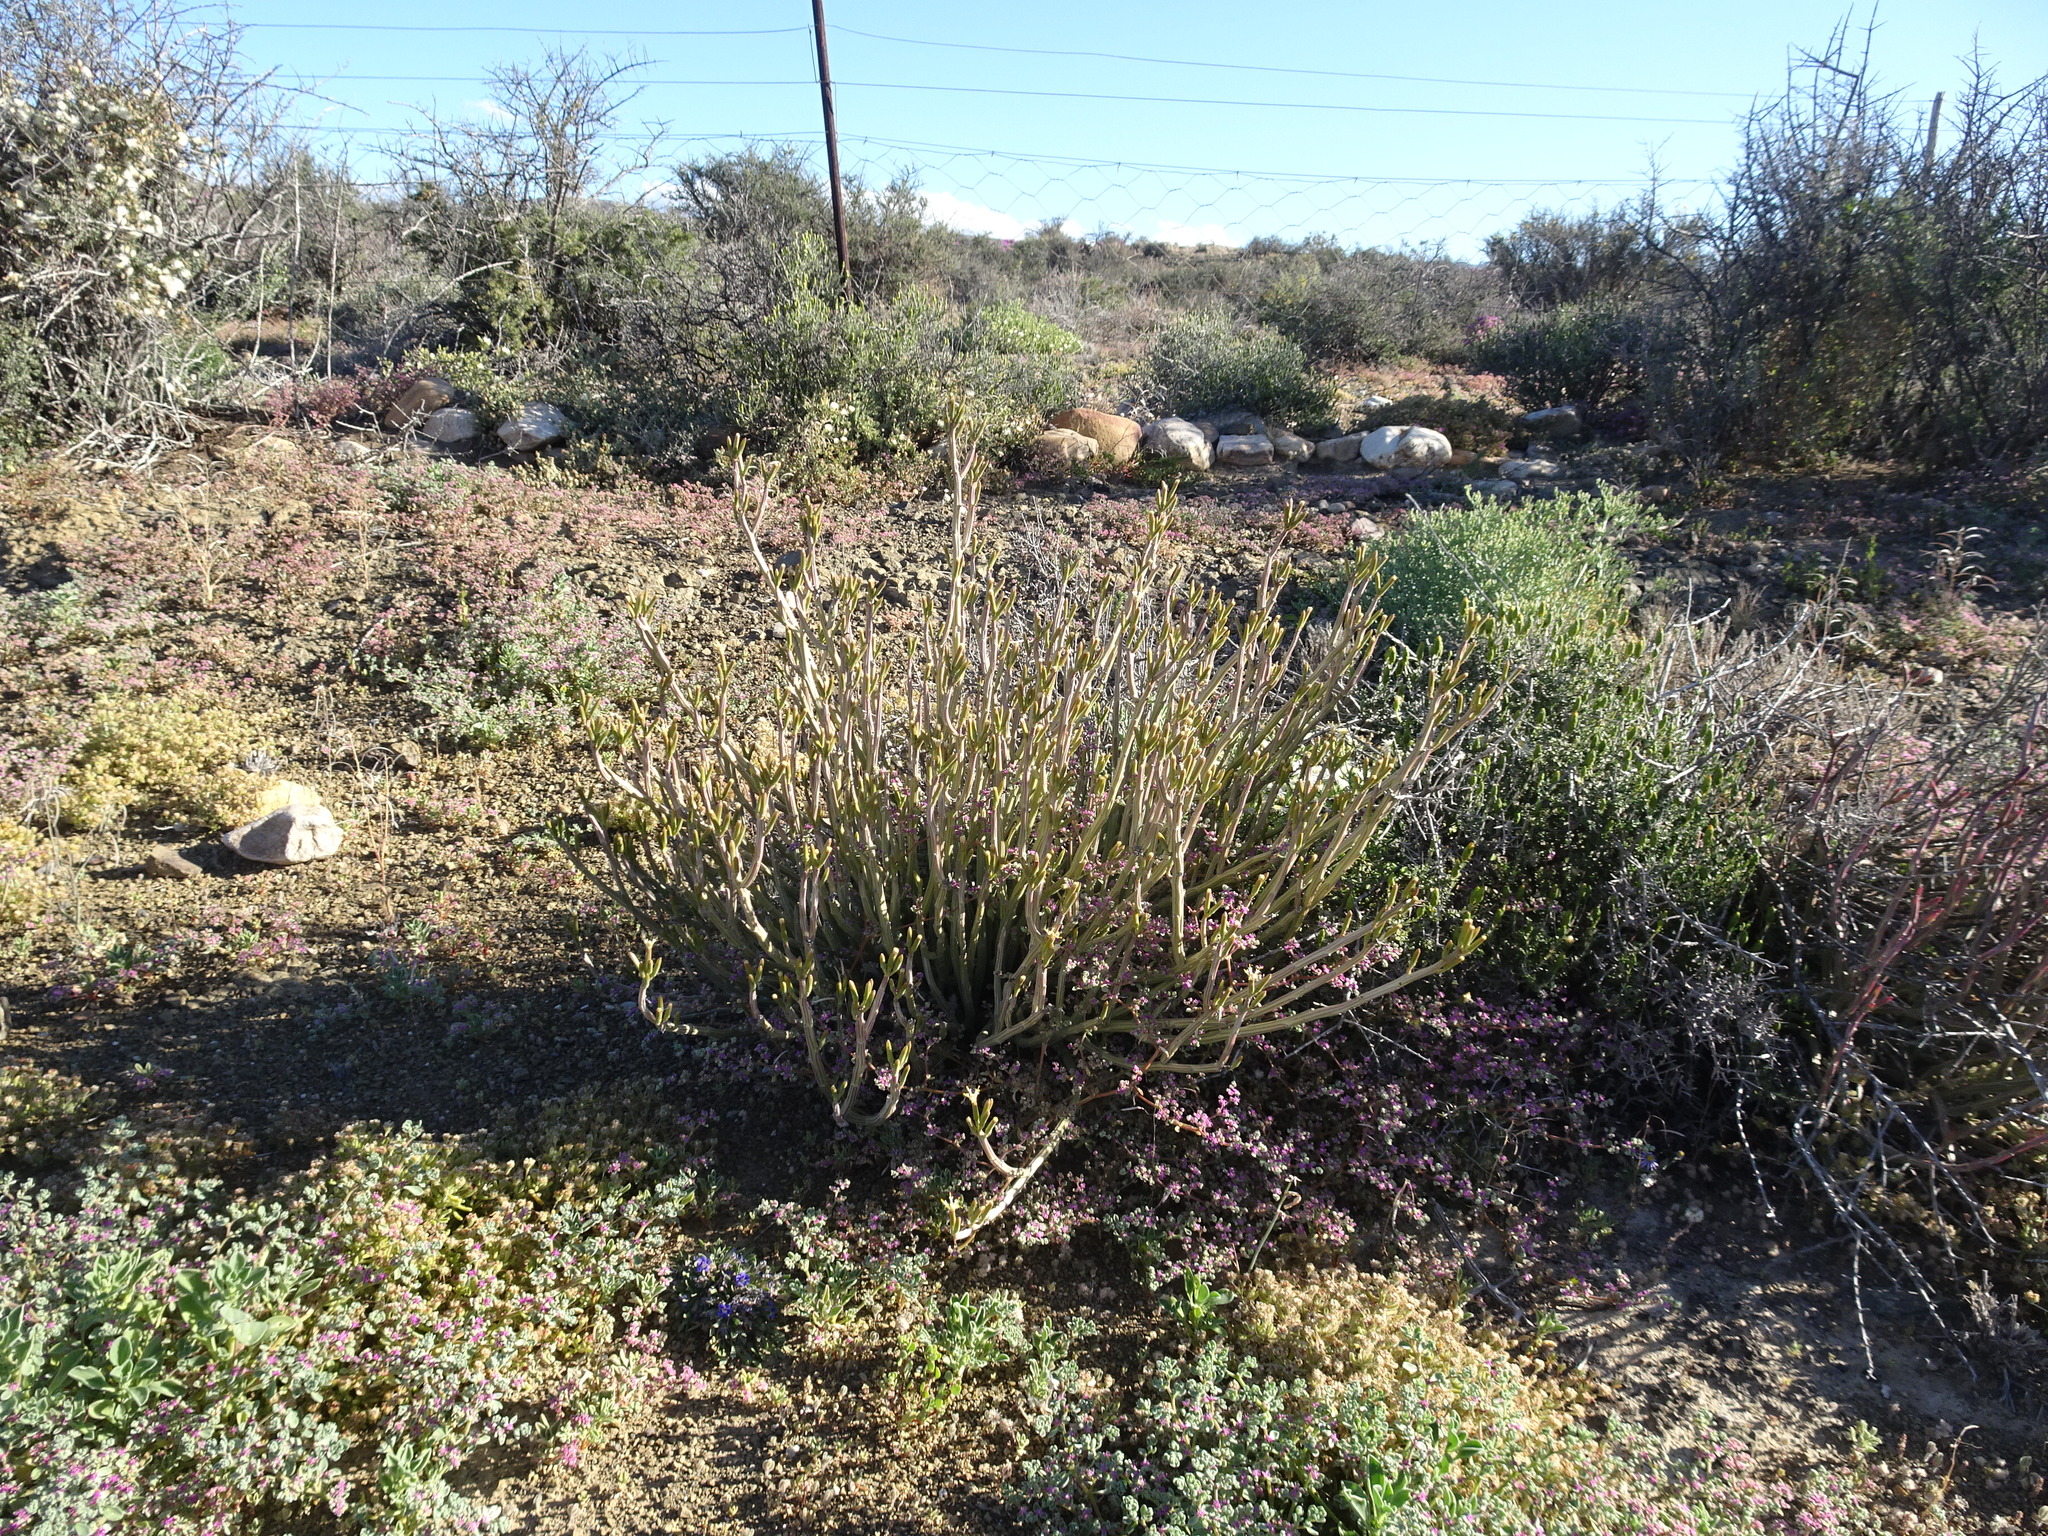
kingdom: Plantae
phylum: Tracheophyta
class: Magnoliopsida
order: Asterales
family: Asteraceae
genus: Curio
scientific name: Curio avasimontanus
